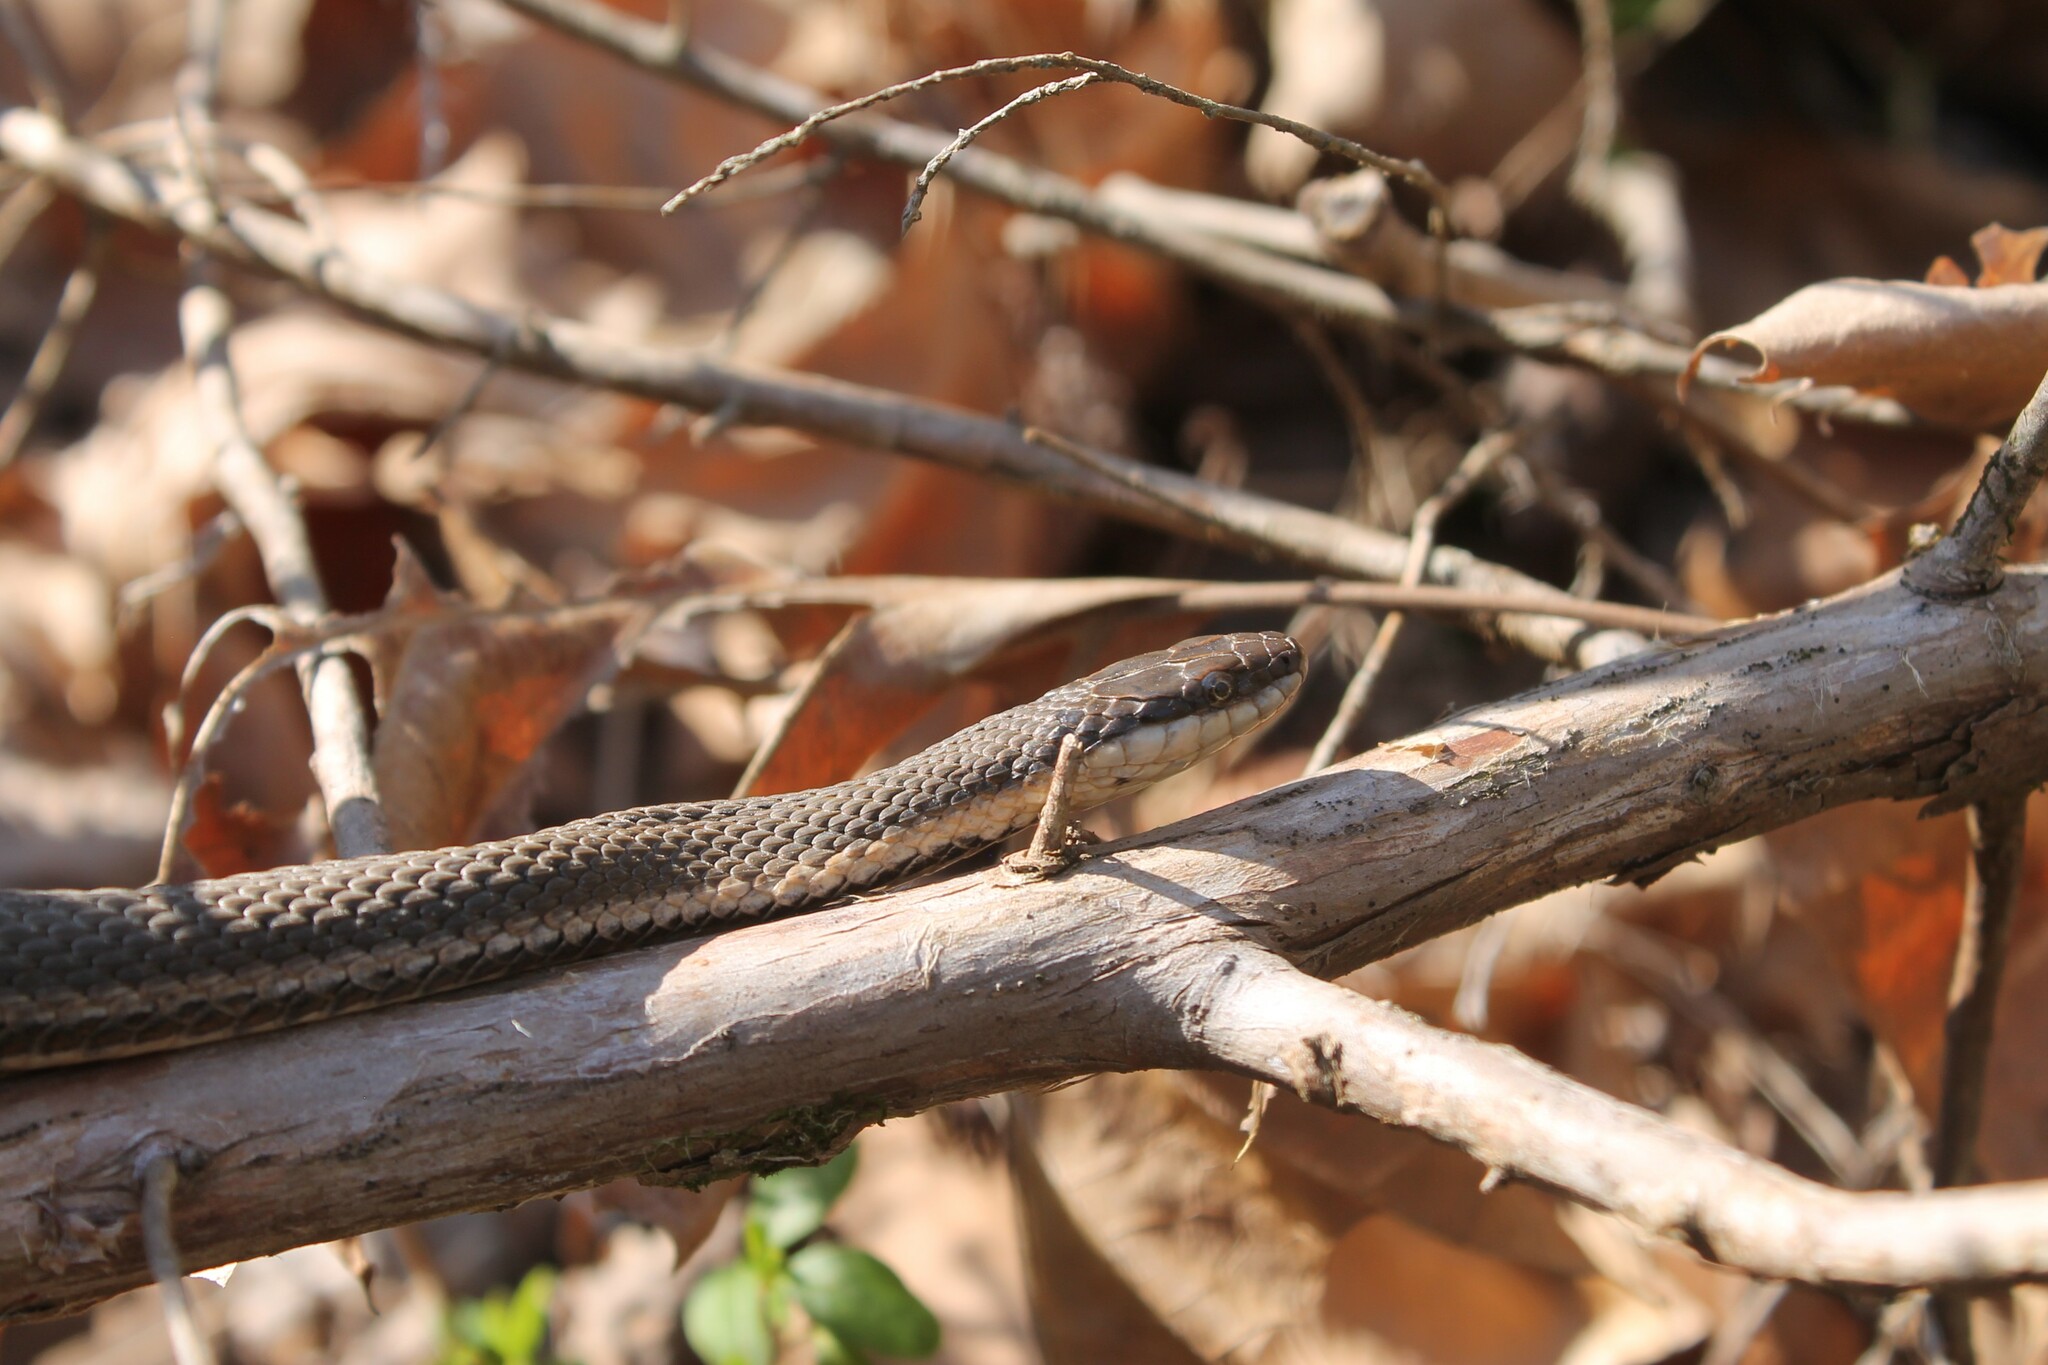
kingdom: Animalia
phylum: Chordata
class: Squamata
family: Colubridae
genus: Regina
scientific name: Regina septemvittata
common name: Queen snake
